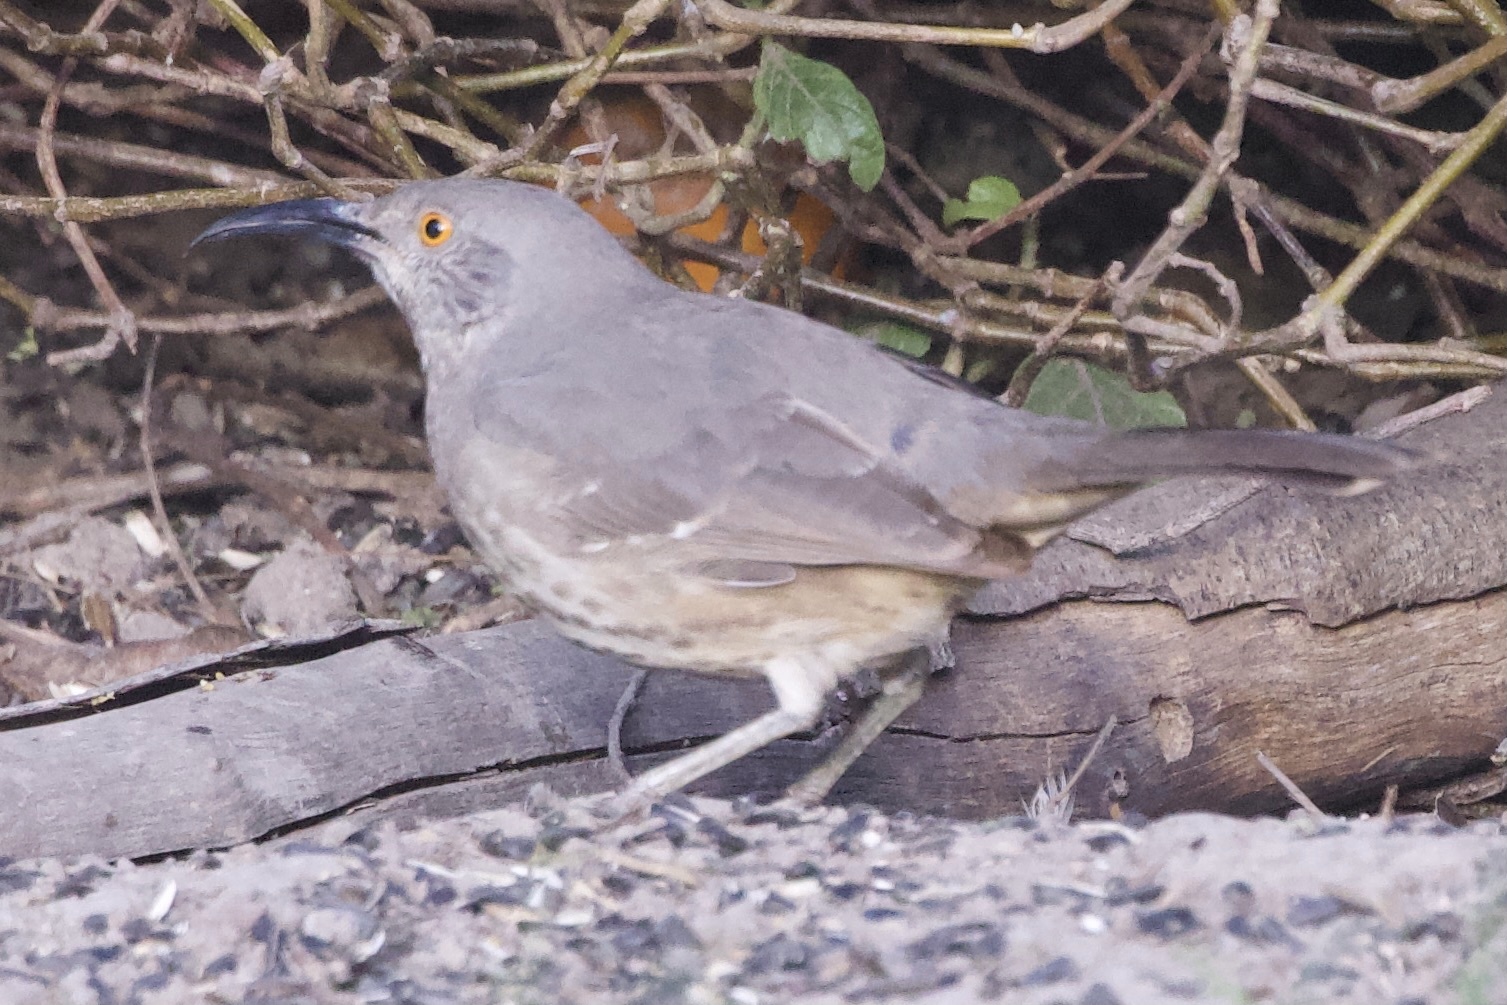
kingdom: Animalia
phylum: Chordata
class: Aves
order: Passeriformes
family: Mimidae
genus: Toxostoma
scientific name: Toxostoma curvirostre
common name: Curve-billed thrasher
